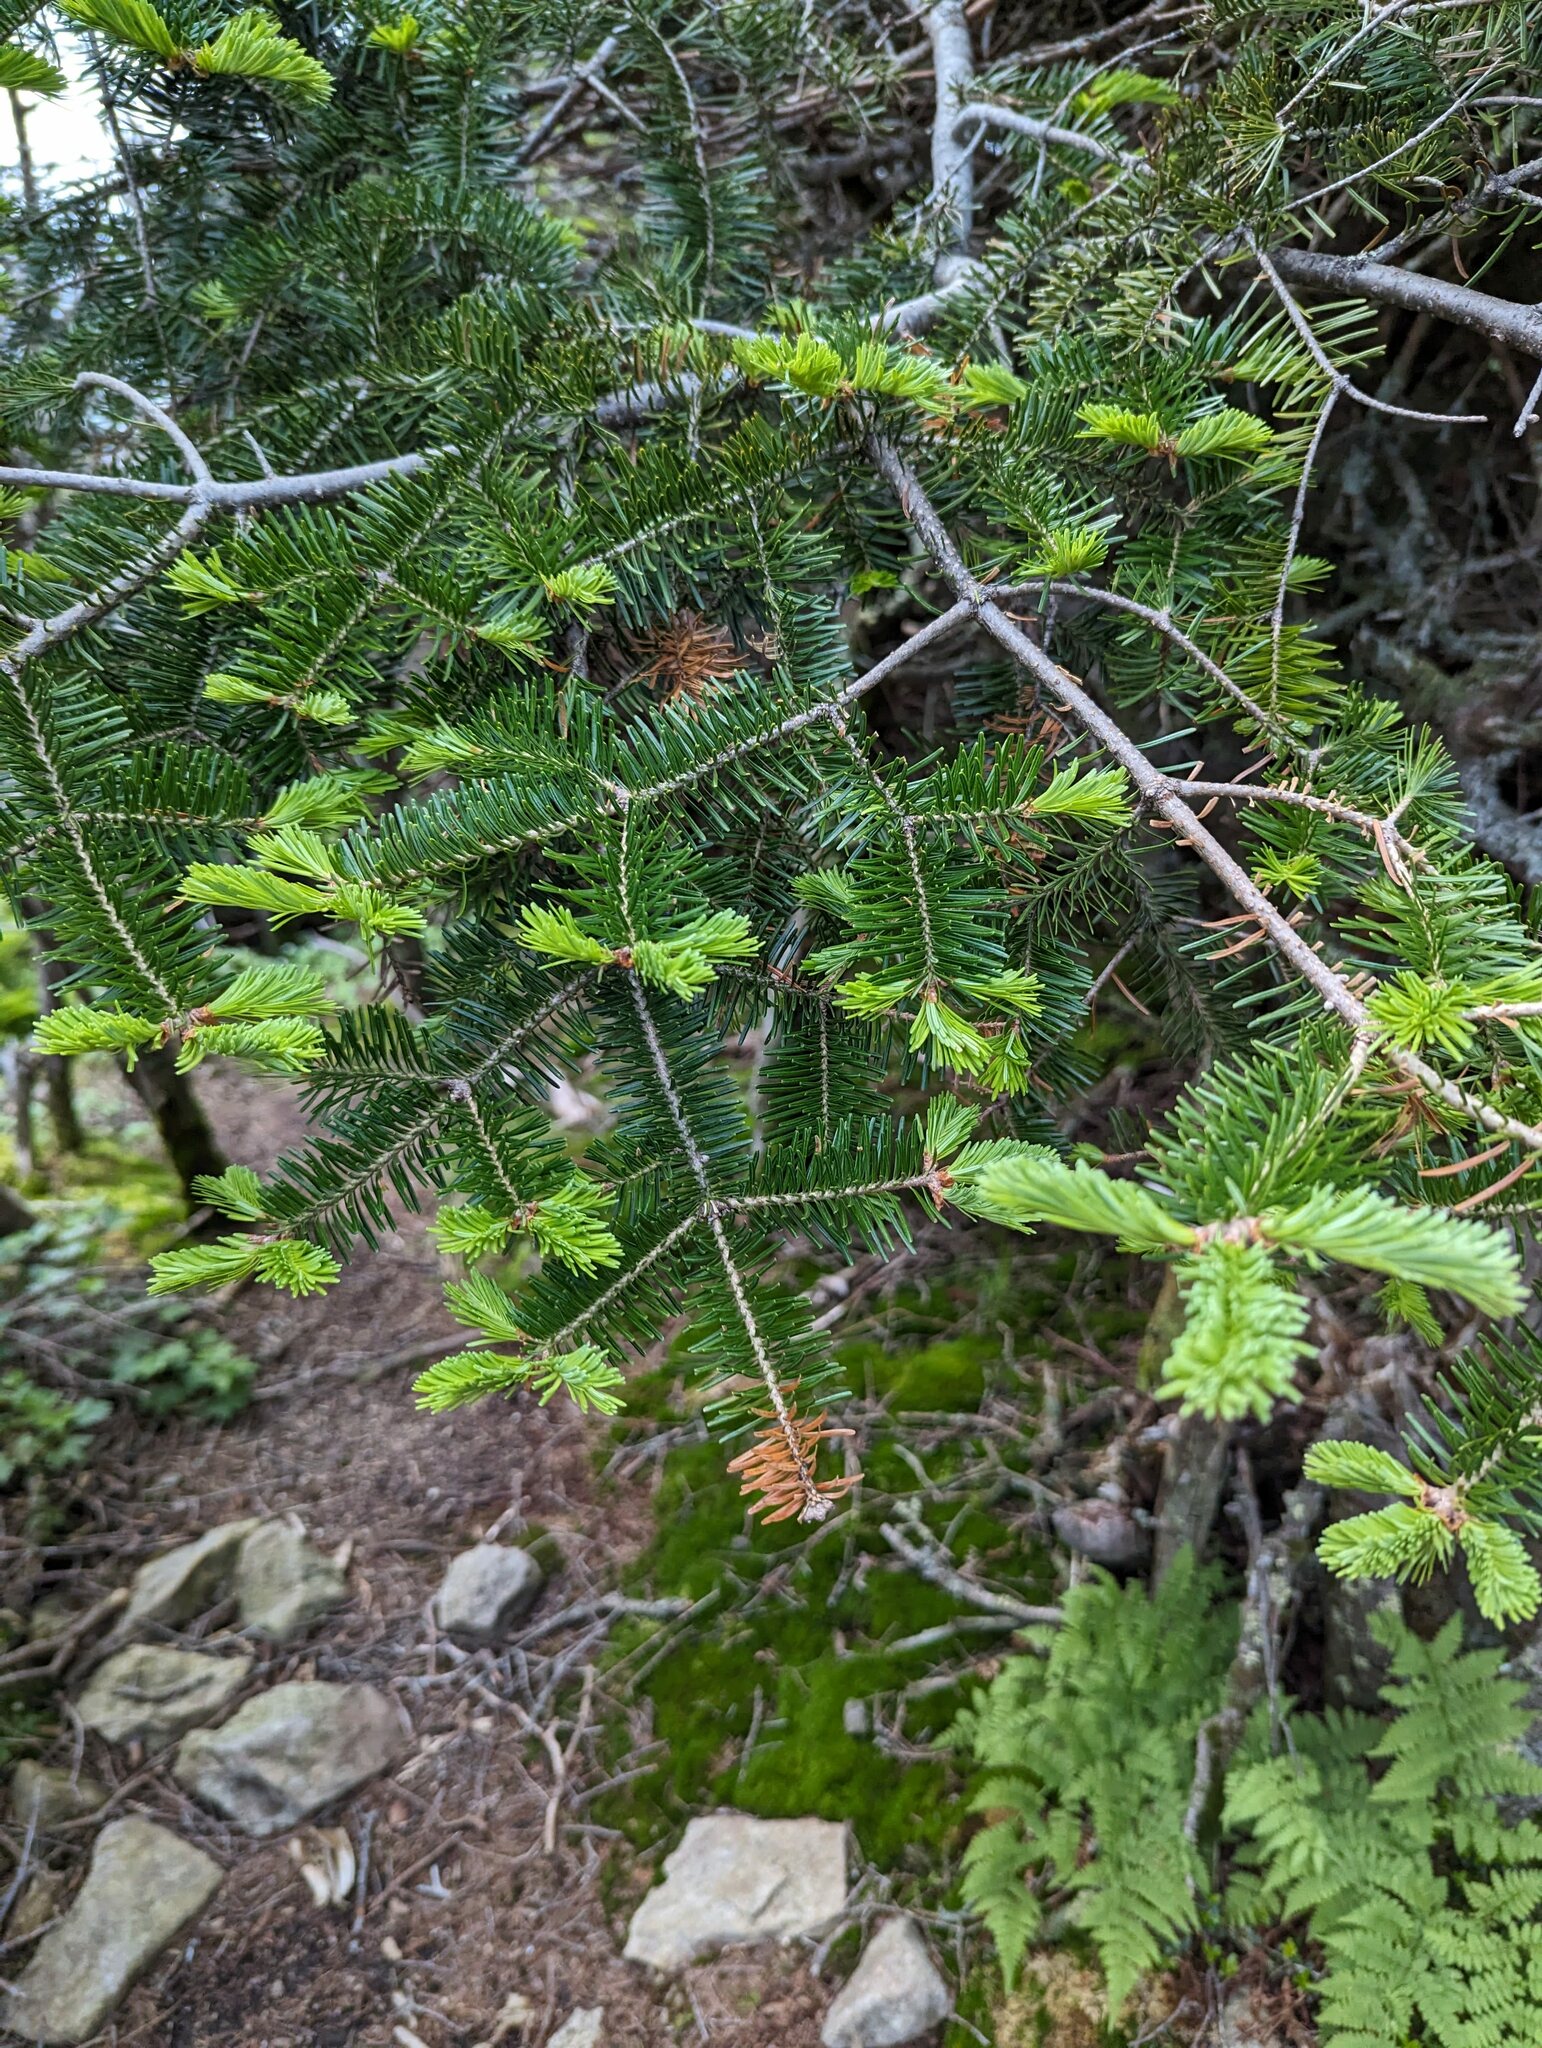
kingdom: Plantae
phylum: Tracheophyta
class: Pinopsida
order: Pinales
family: Pinaceae
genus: Abies
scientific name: Abies balsamea
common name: Balsam fir
